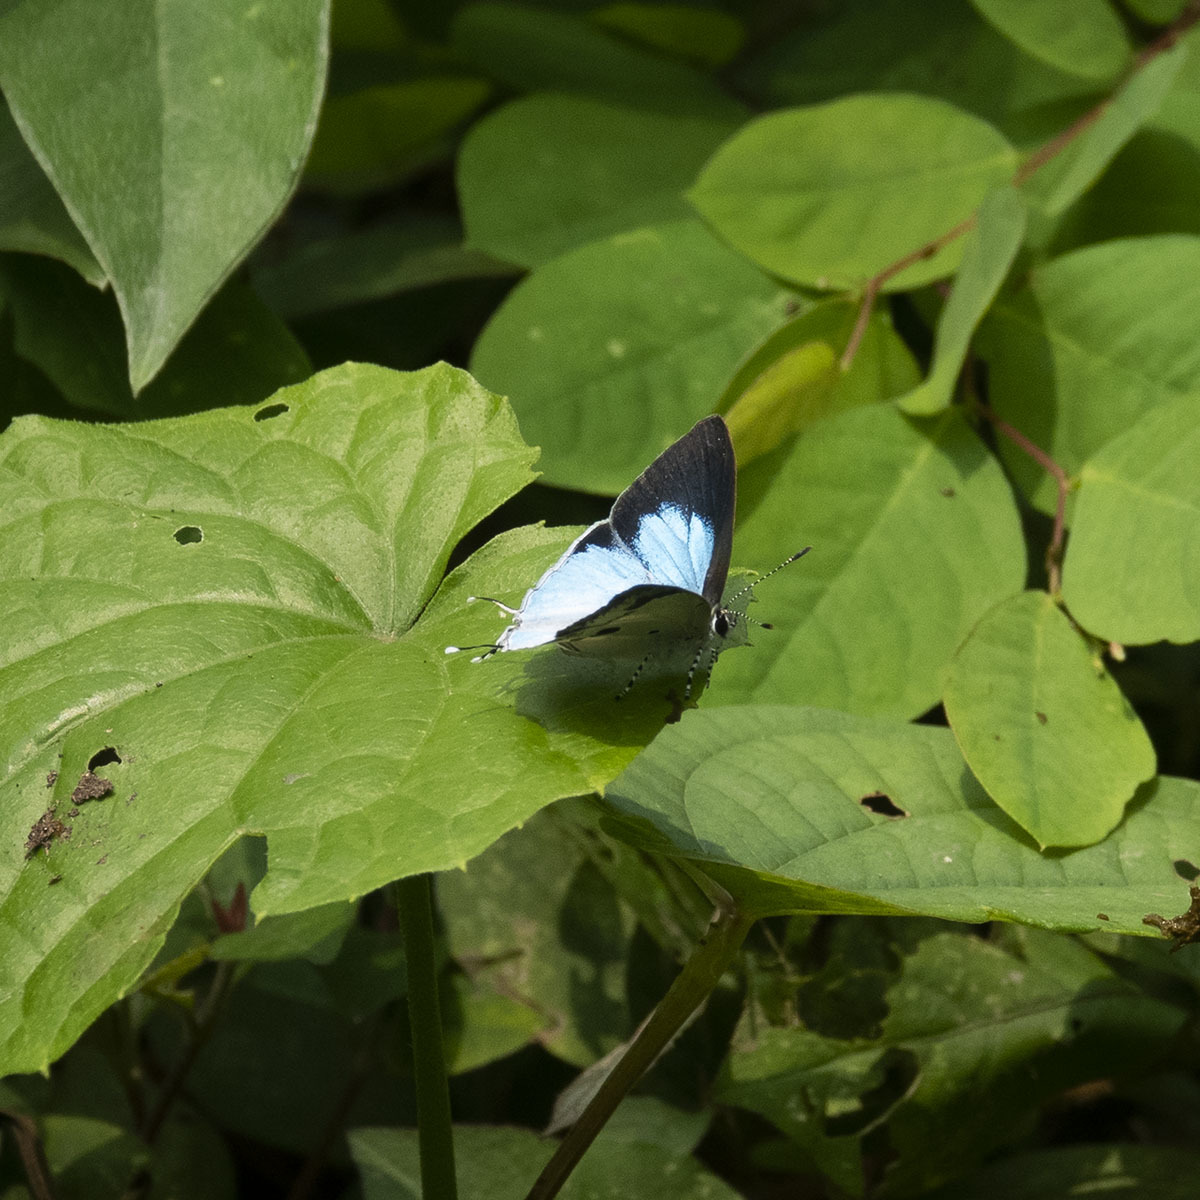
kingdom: Animalia
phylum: Arthropoda
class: Insecta
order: Lepidoptera
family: Lycaenidae
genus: Chliaria
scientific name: Chliaria othona
